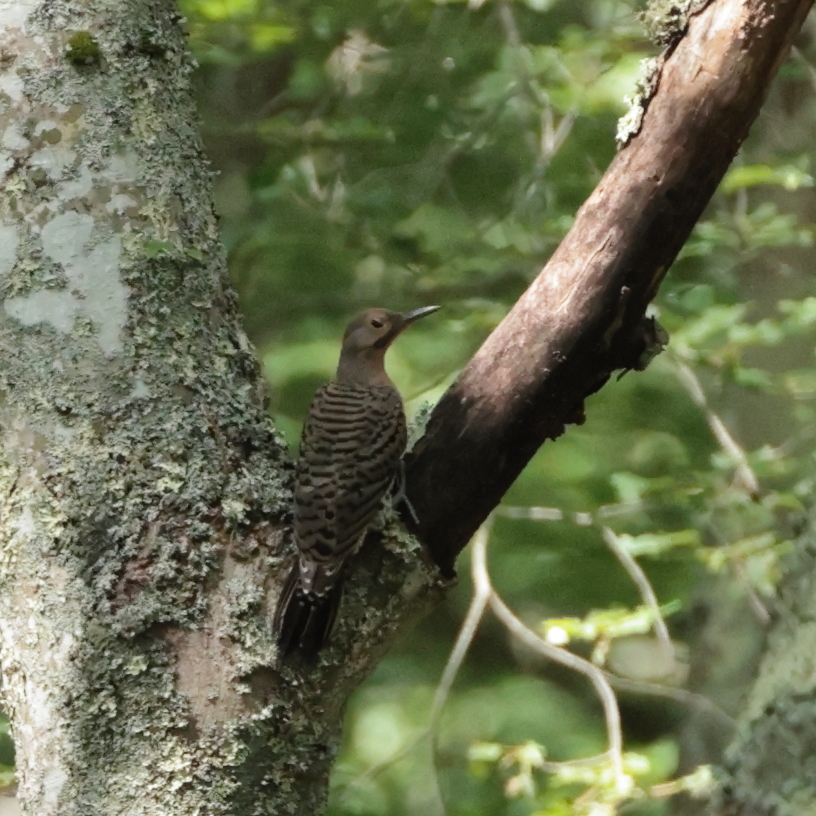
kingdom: Animalia
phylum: Chordata
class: Aves
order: Piciformes
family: Picidae
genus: Colaptes
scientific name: Colaptes auratus
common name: Northern flicker
